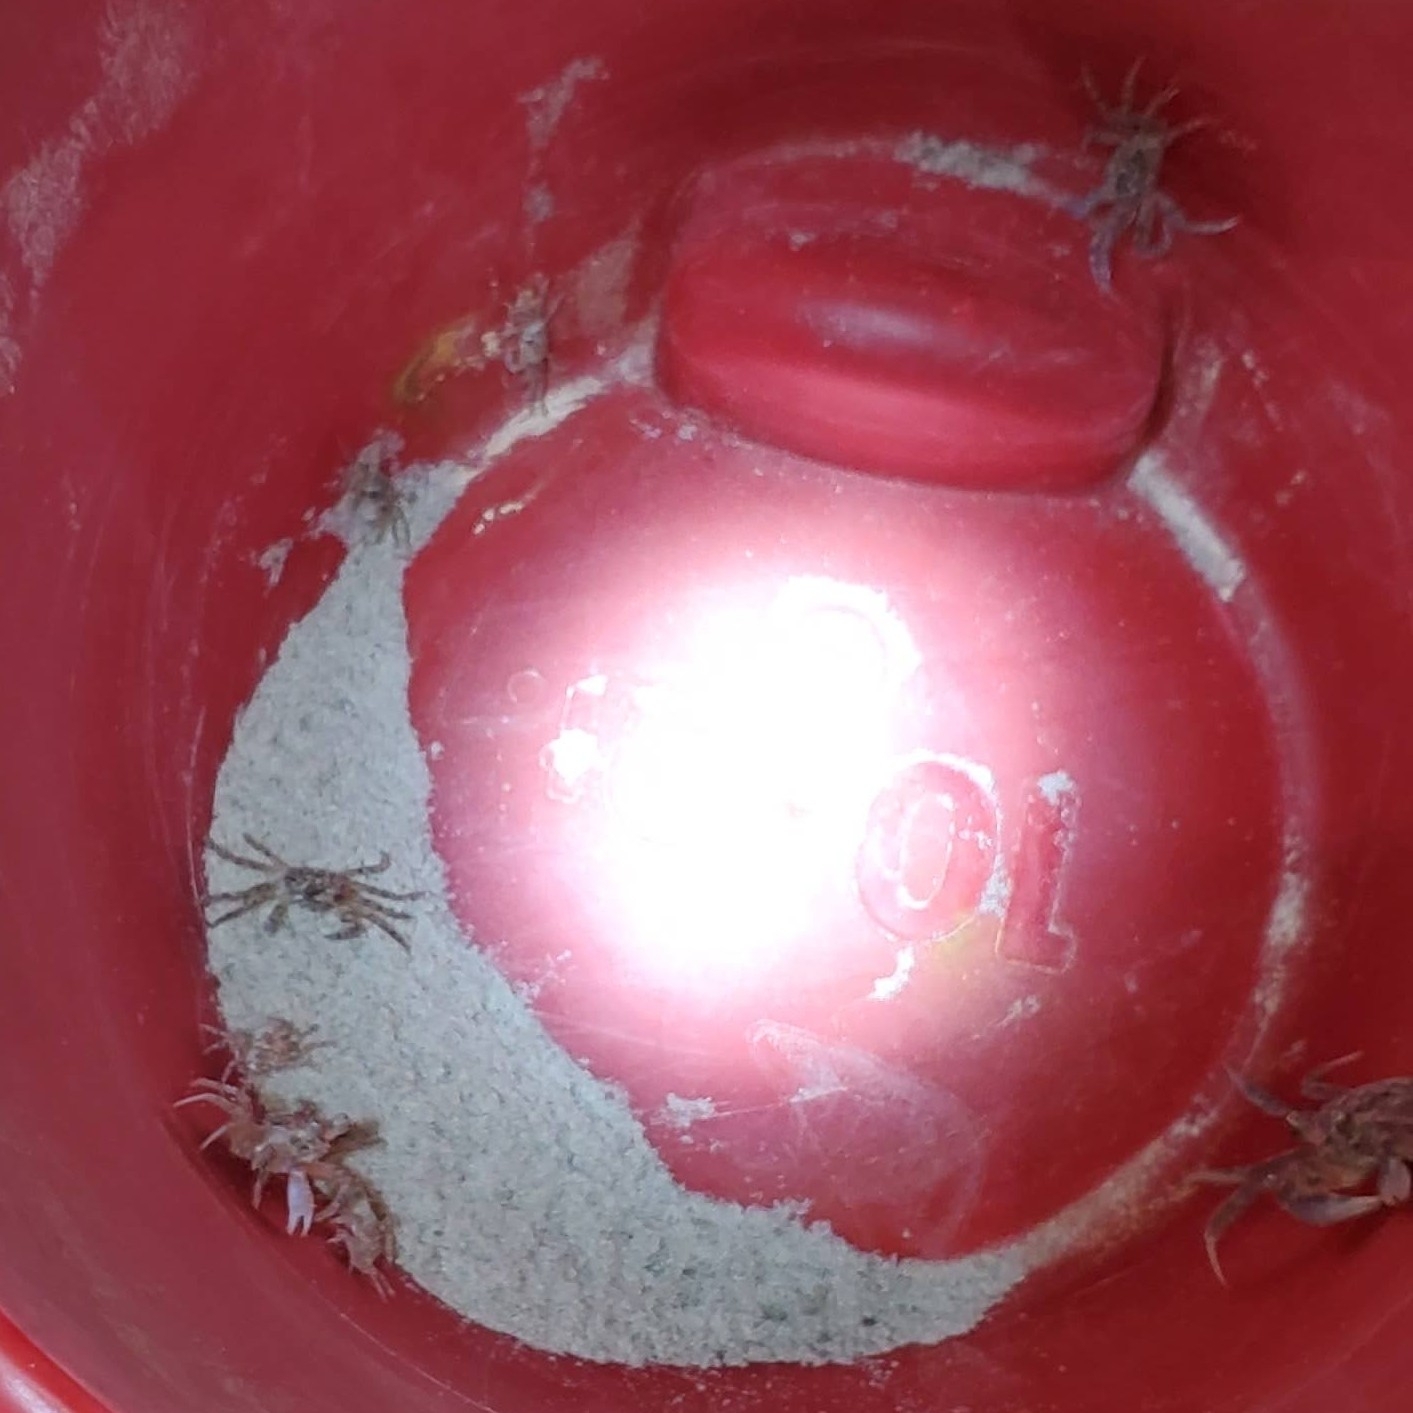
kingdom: Animalia
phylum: Arthropoda
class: Malacostraca
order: Decapoda
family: Ocypodidae
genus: Ocypode
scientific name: Ocypode quadrata
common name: Ghost crab
